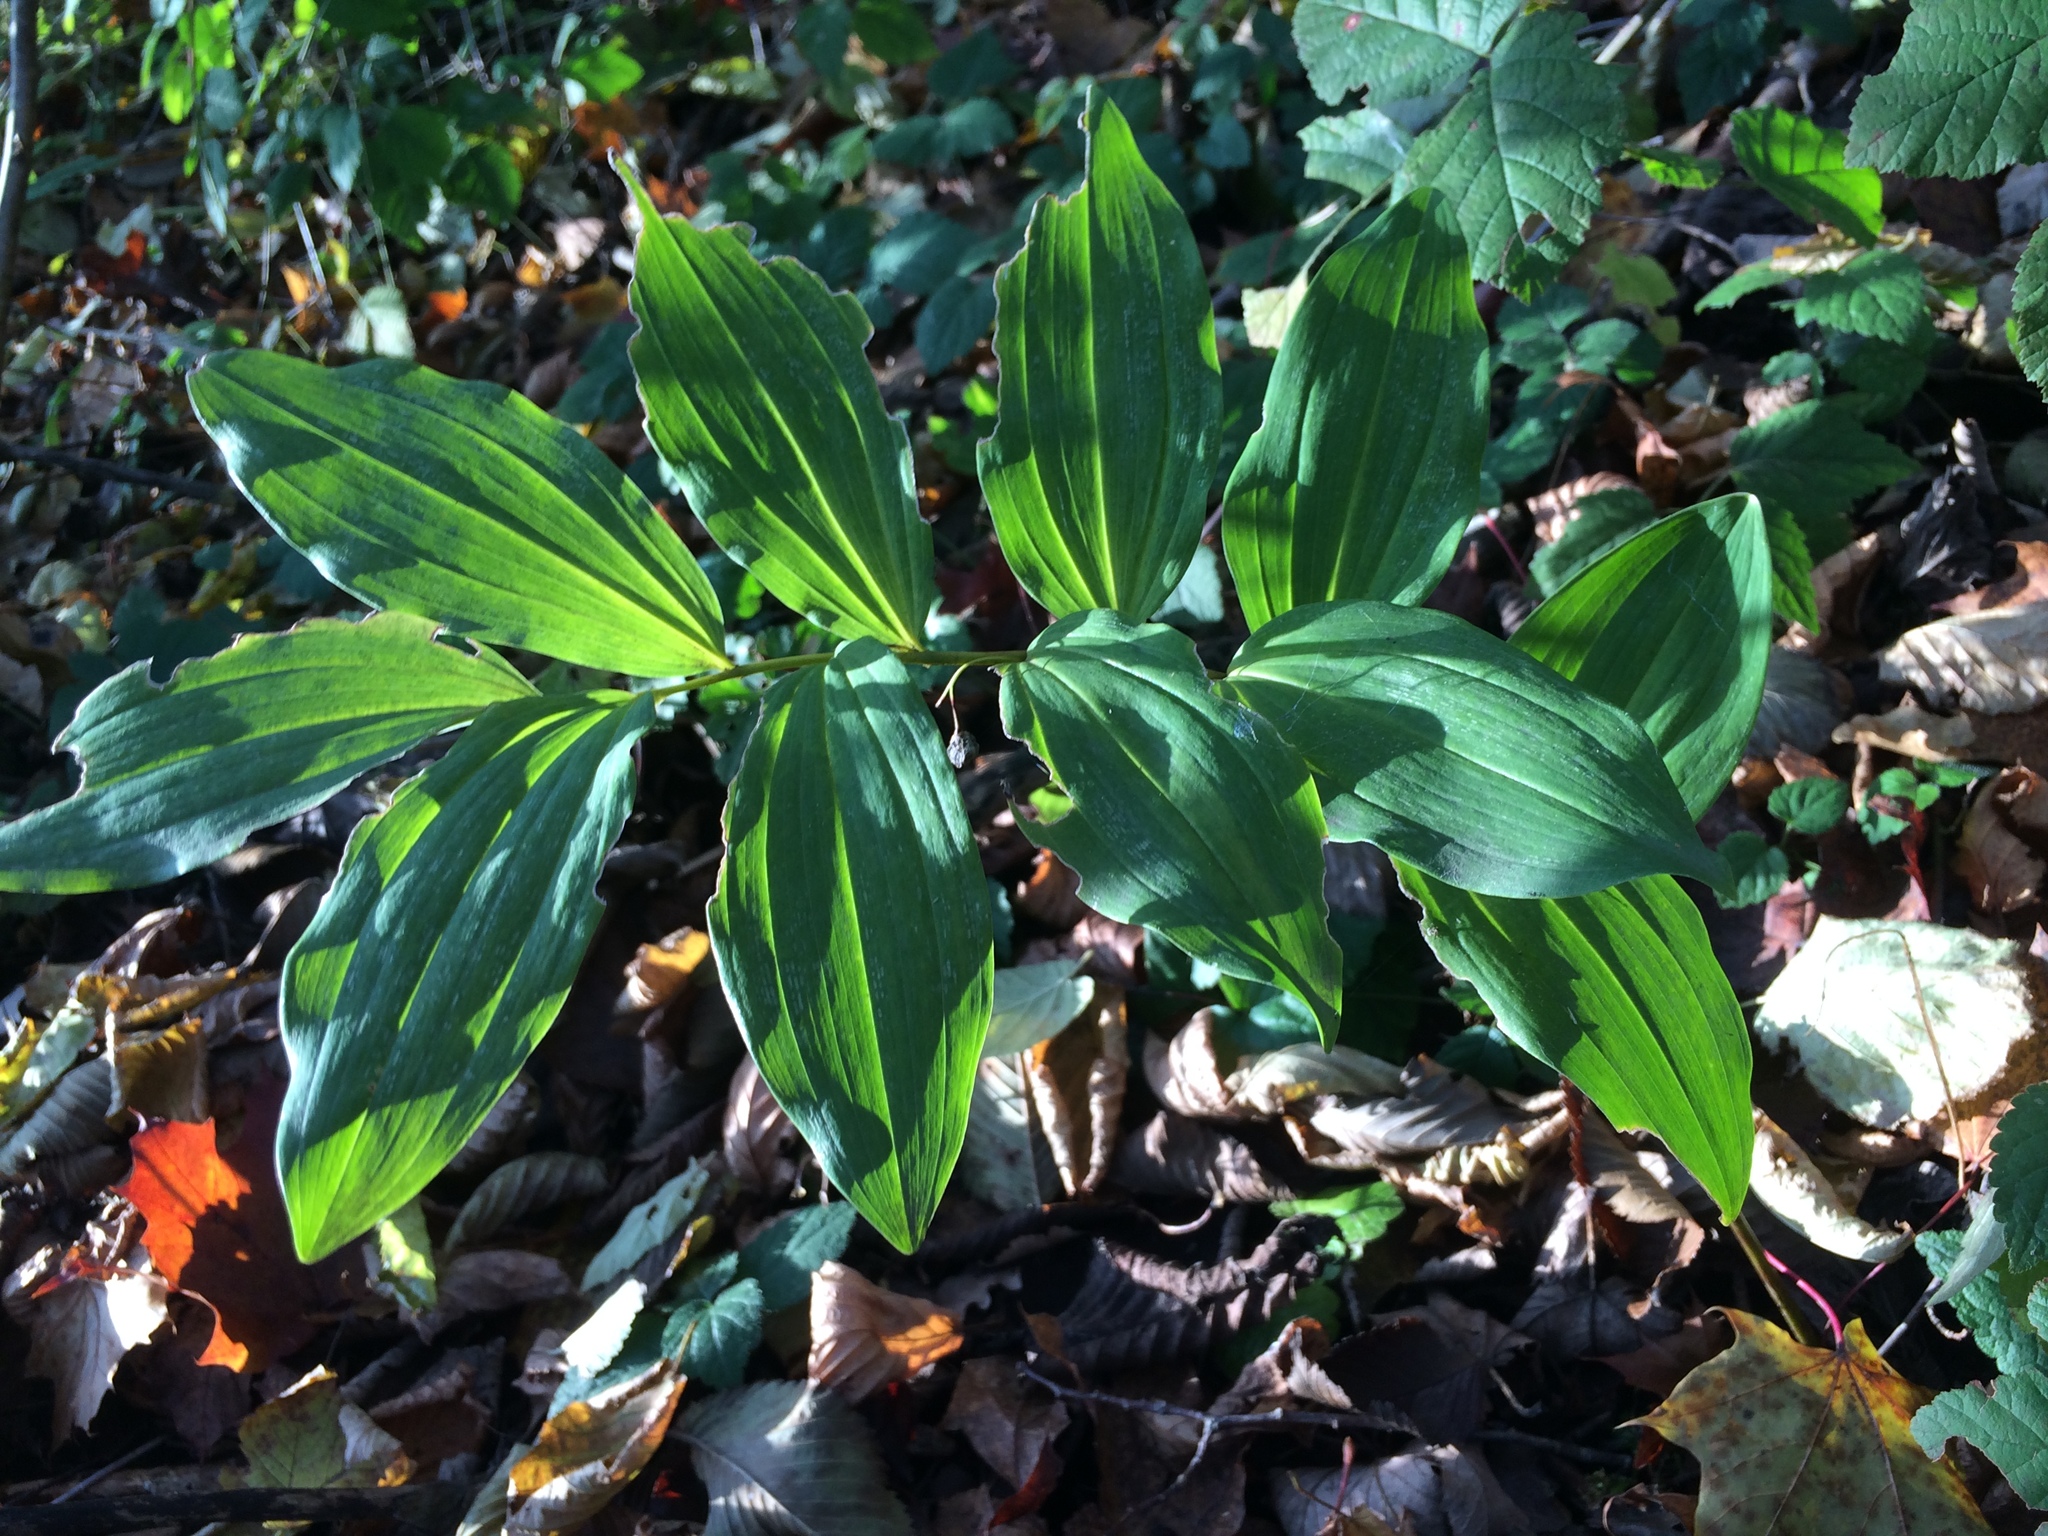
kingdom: Plantae
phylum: Tracheophyta
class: Liliopsida
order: Asparagales
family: Asparagaceae
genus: Polygonatum
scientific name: Polygonatum multiflorum
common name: Solomon's-seal
